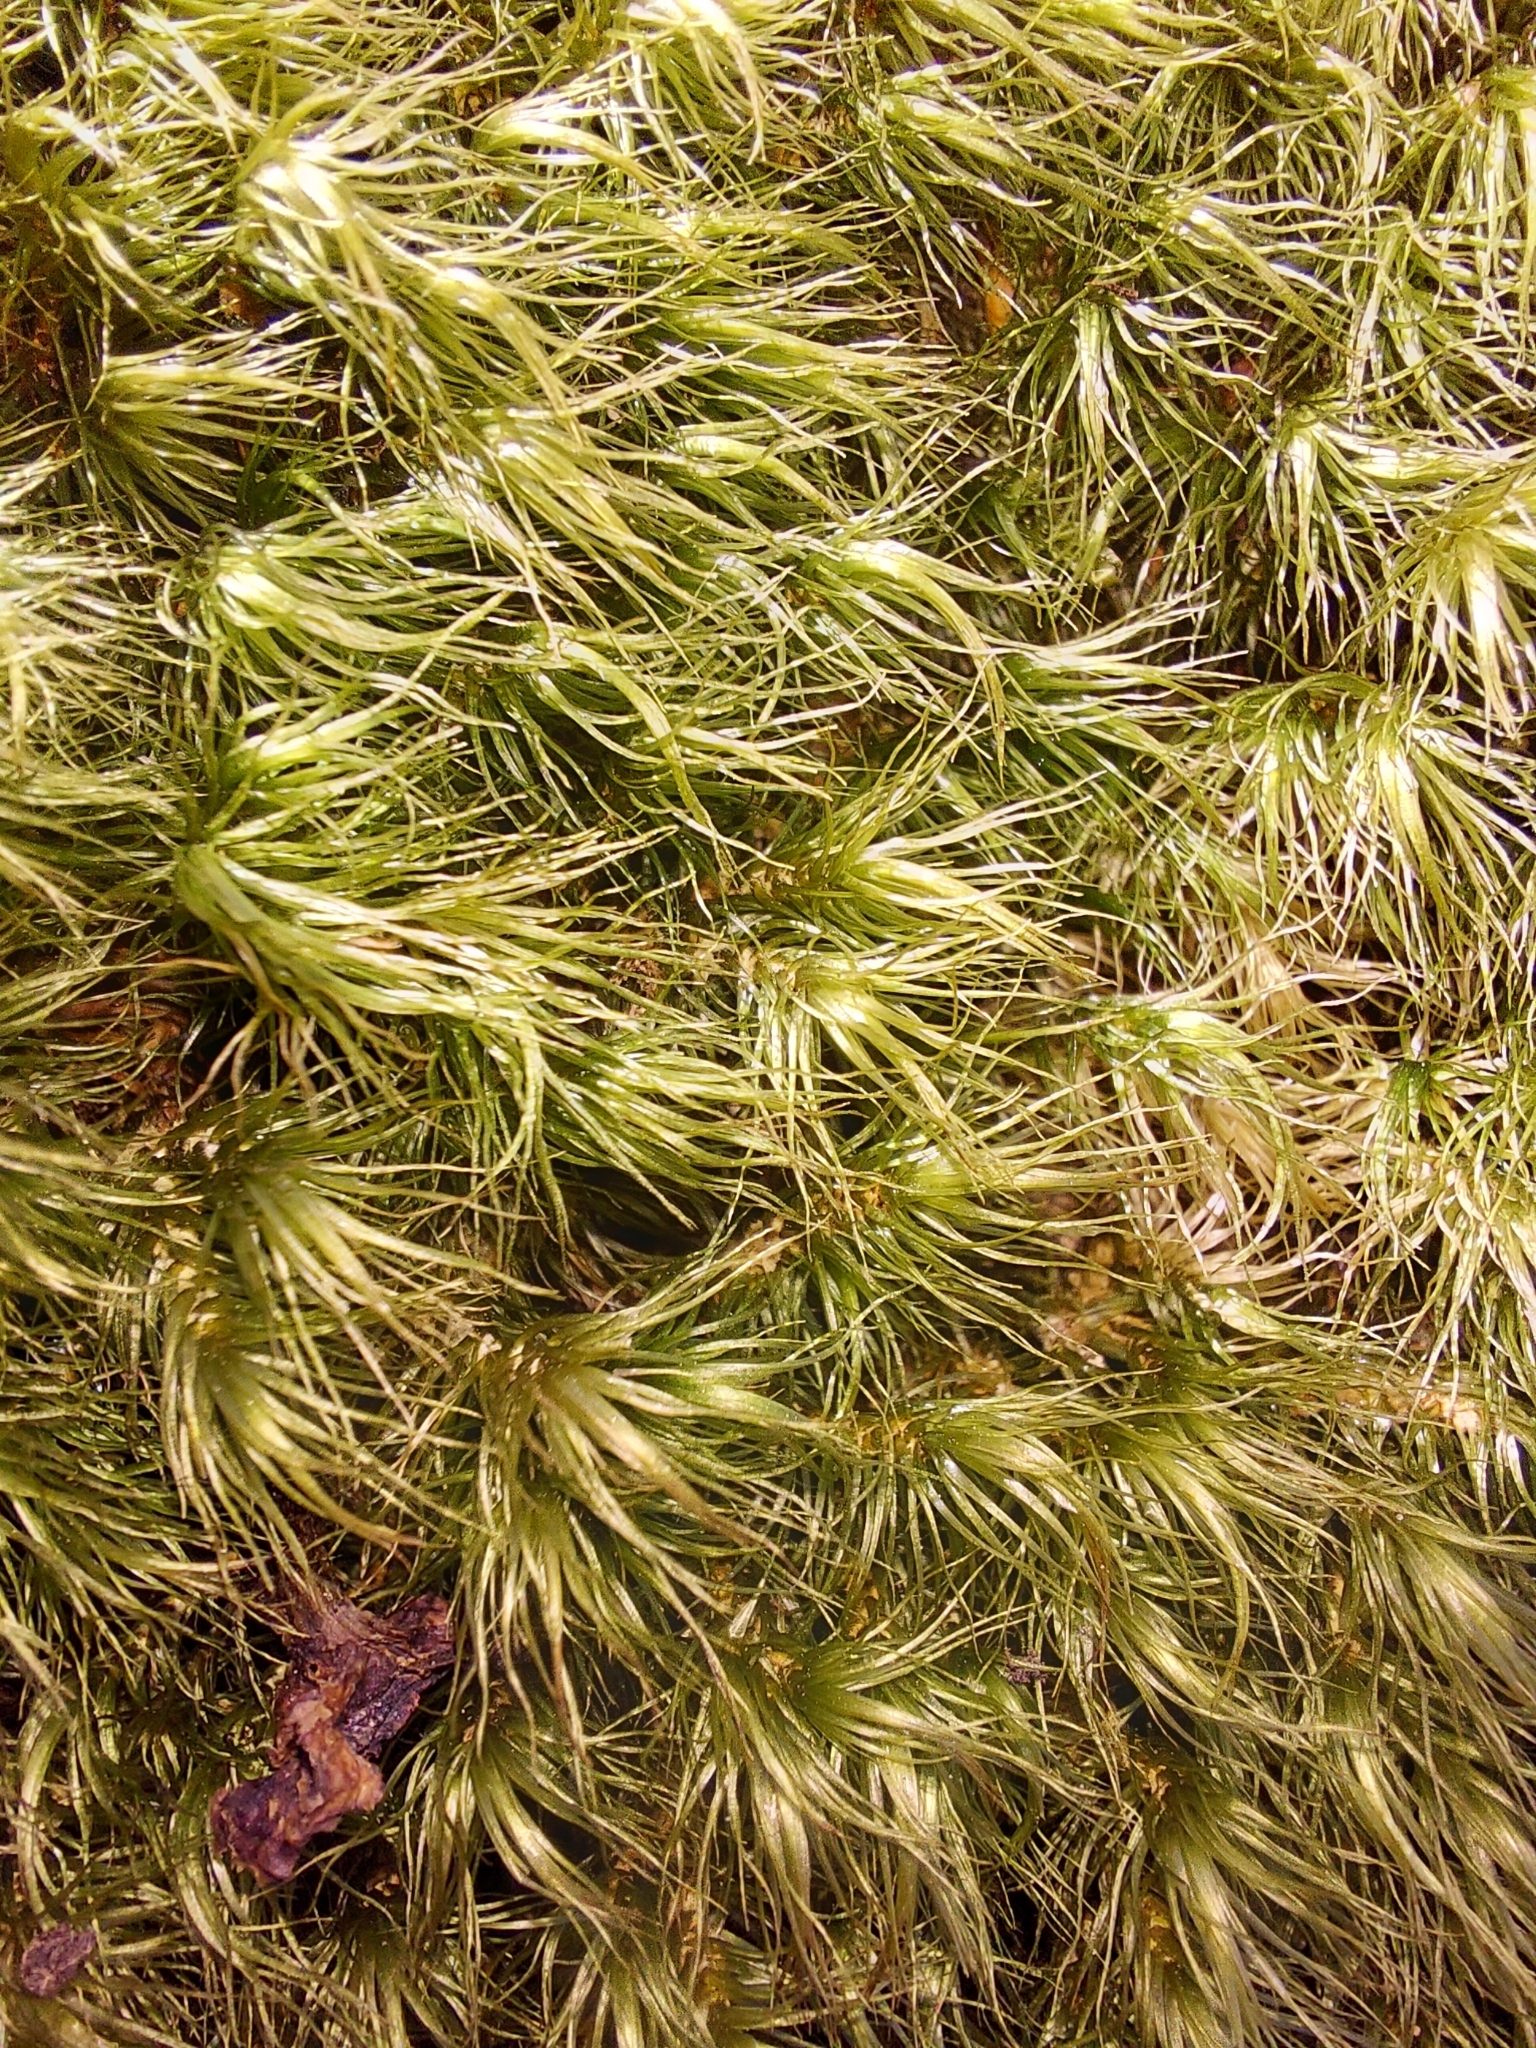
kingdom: Plantae
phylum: Bryophyta
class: Bryopsida
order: Dicranales
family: Dicranaceae
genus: Dicranum
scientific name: Dicranum scoparium
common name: Broom fork-moss
